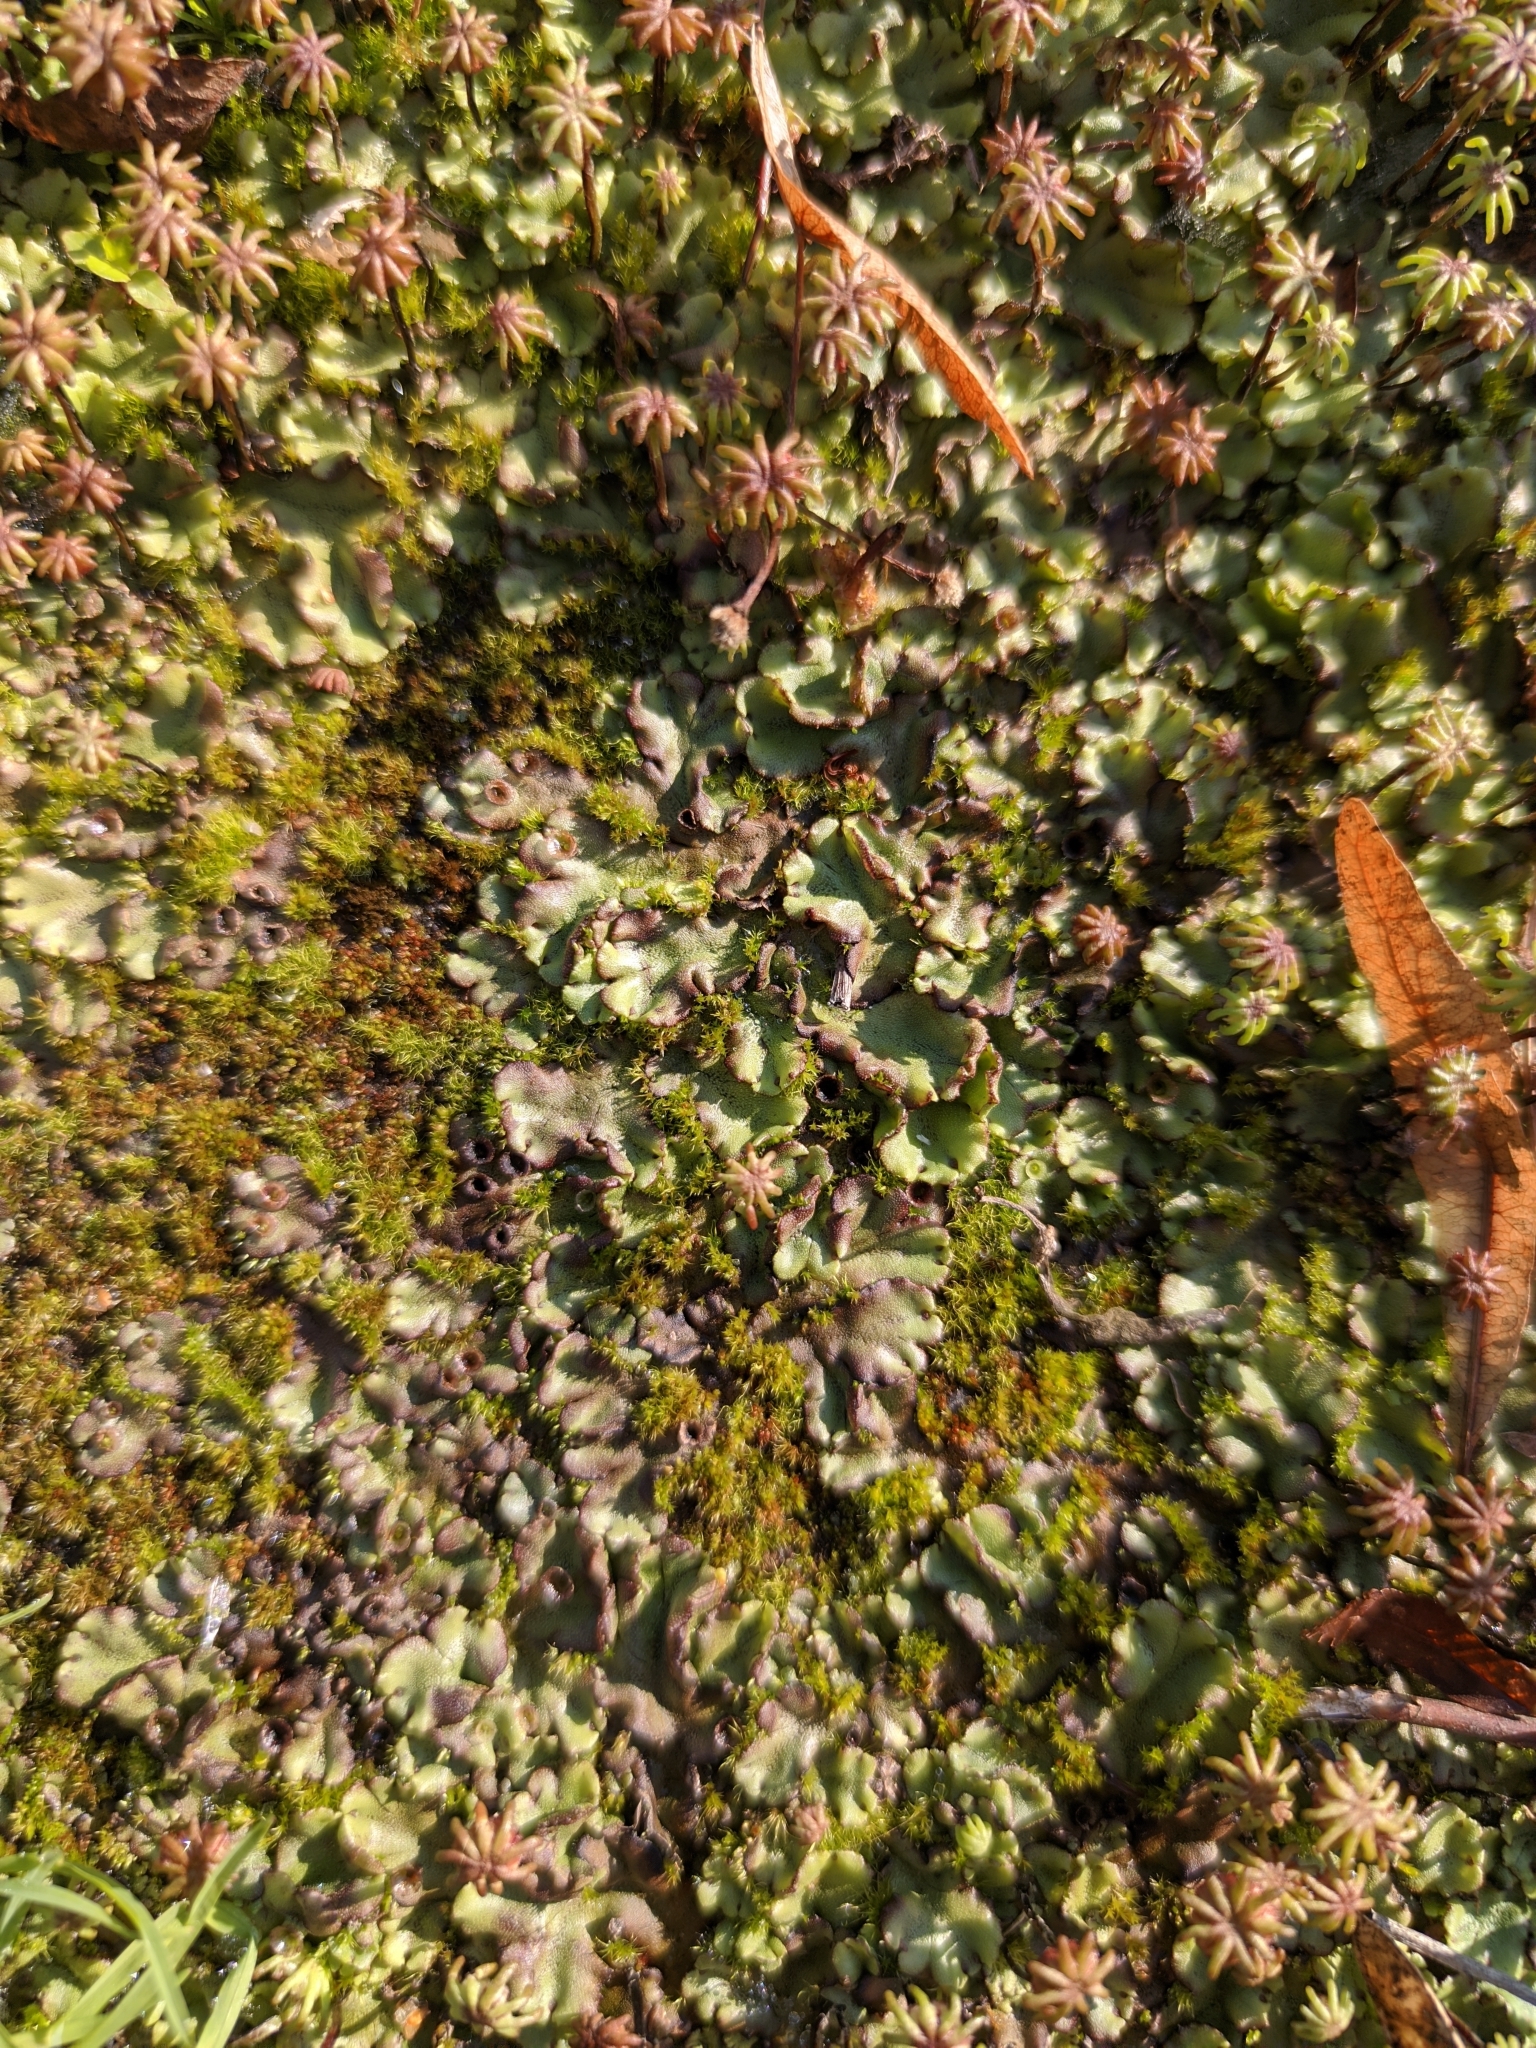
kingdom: Plantae
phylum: Marchantiophyta
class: Marchantiopsida
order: Marchantiales
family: Marchantiaceae
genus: Marchantia
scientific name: Marchantia polymorpha
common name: Common liverwort
